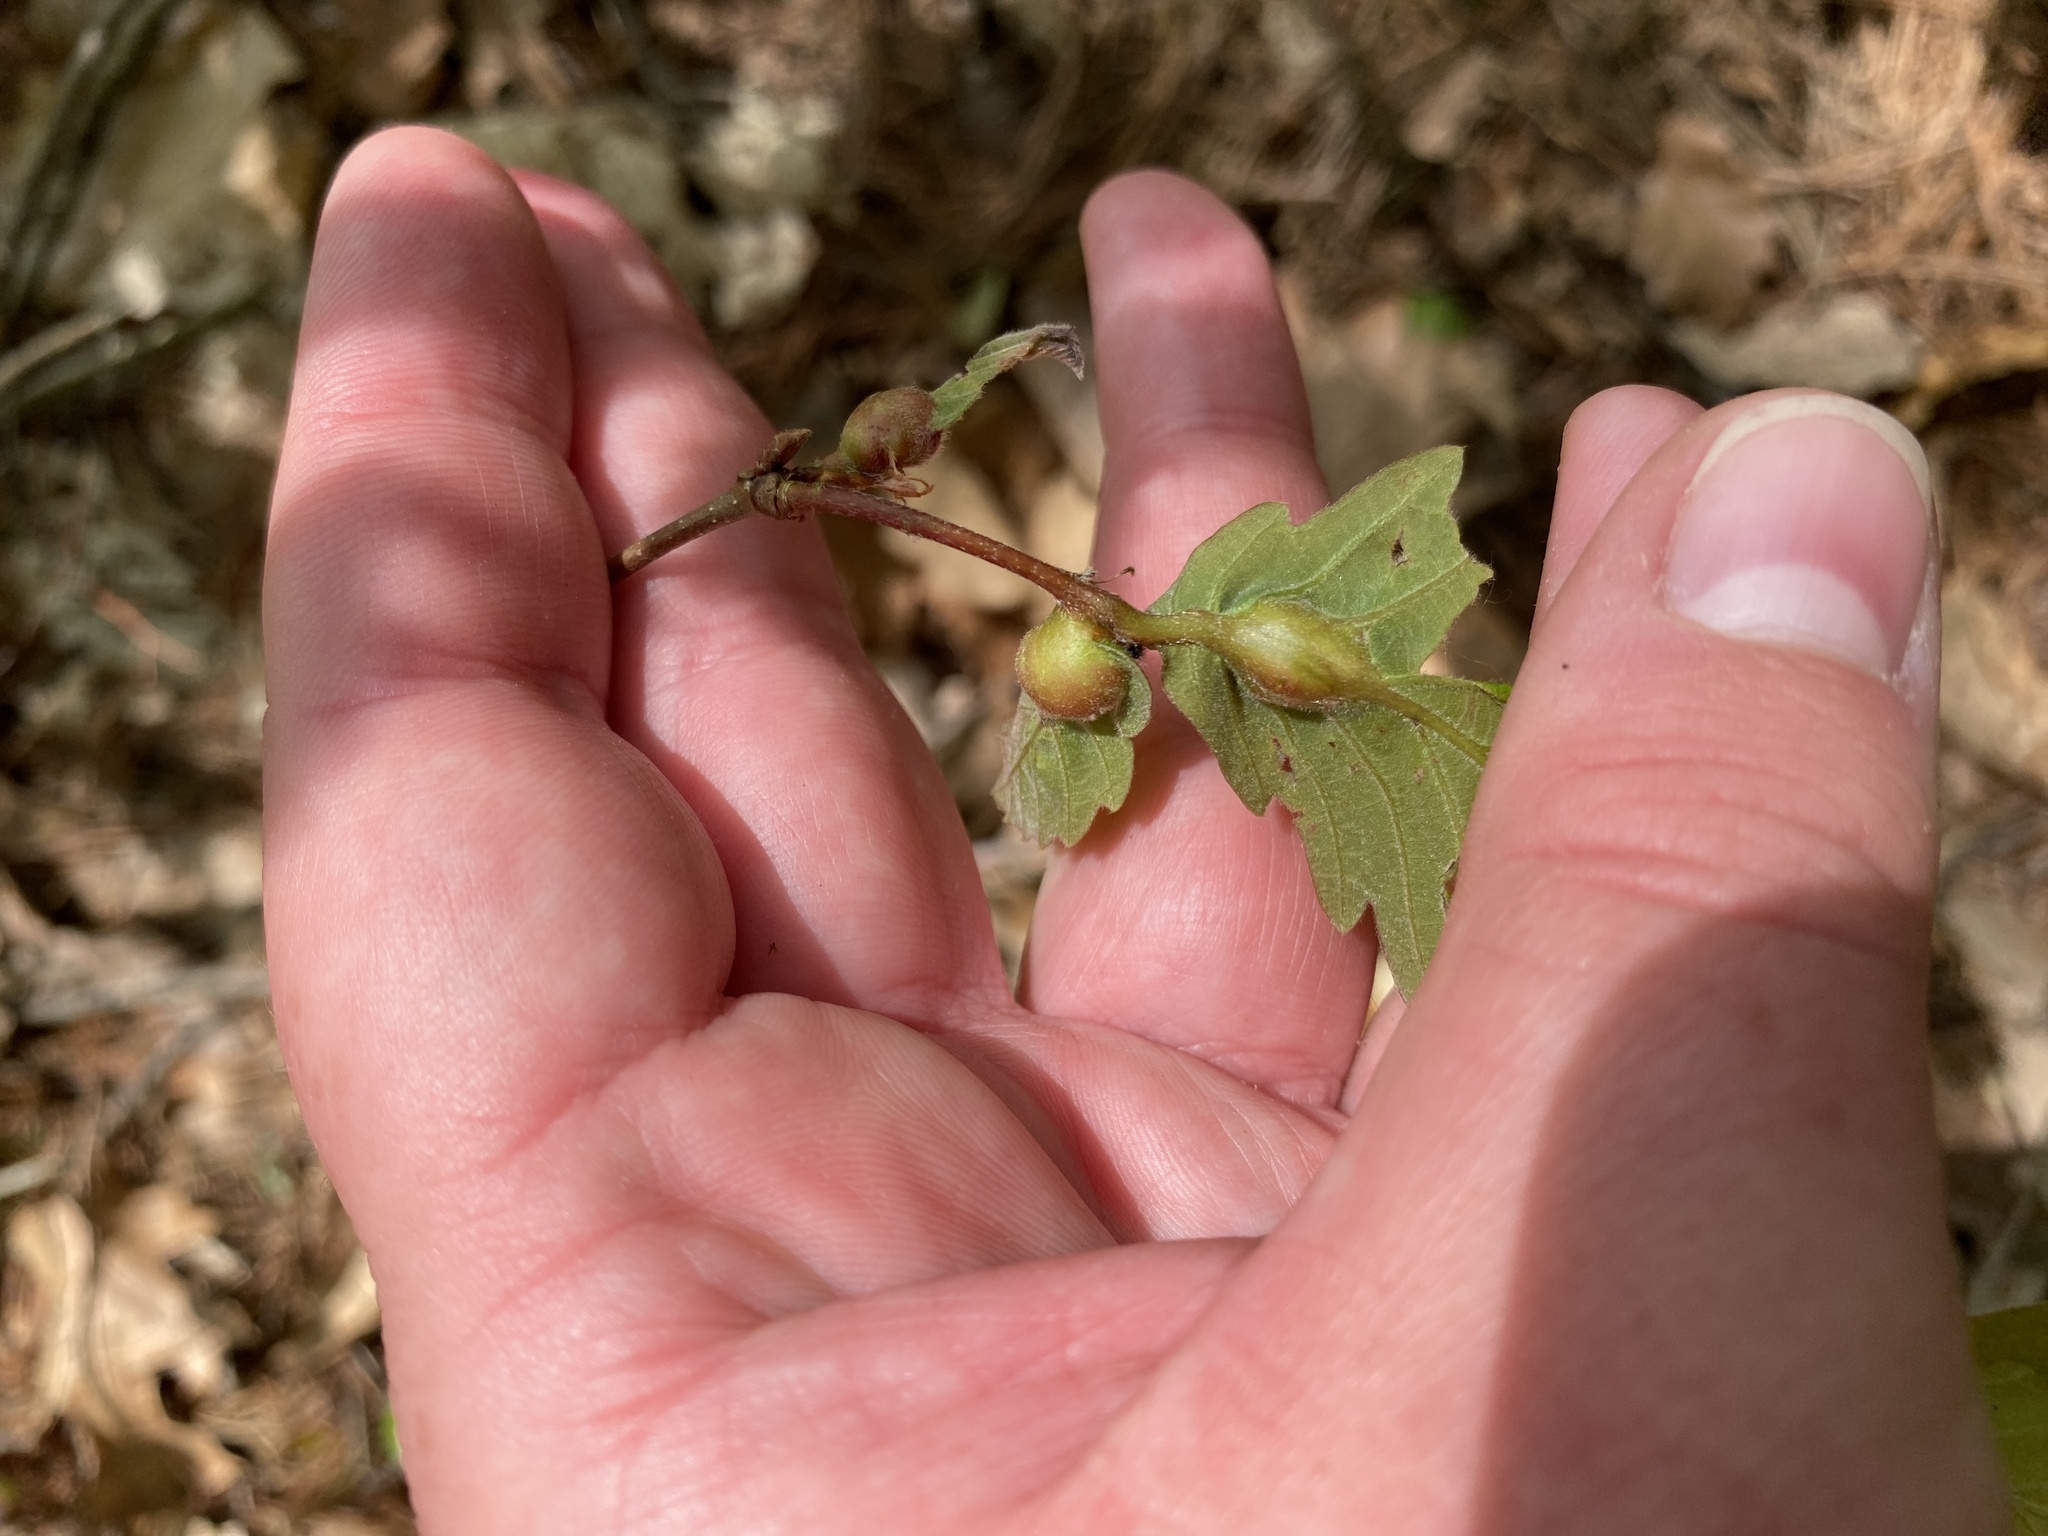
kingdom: Animalia
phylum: Arthropoda
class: Insecta
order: Hymenoptera
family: Cynipidae
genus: Andricus
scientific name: Andricus
